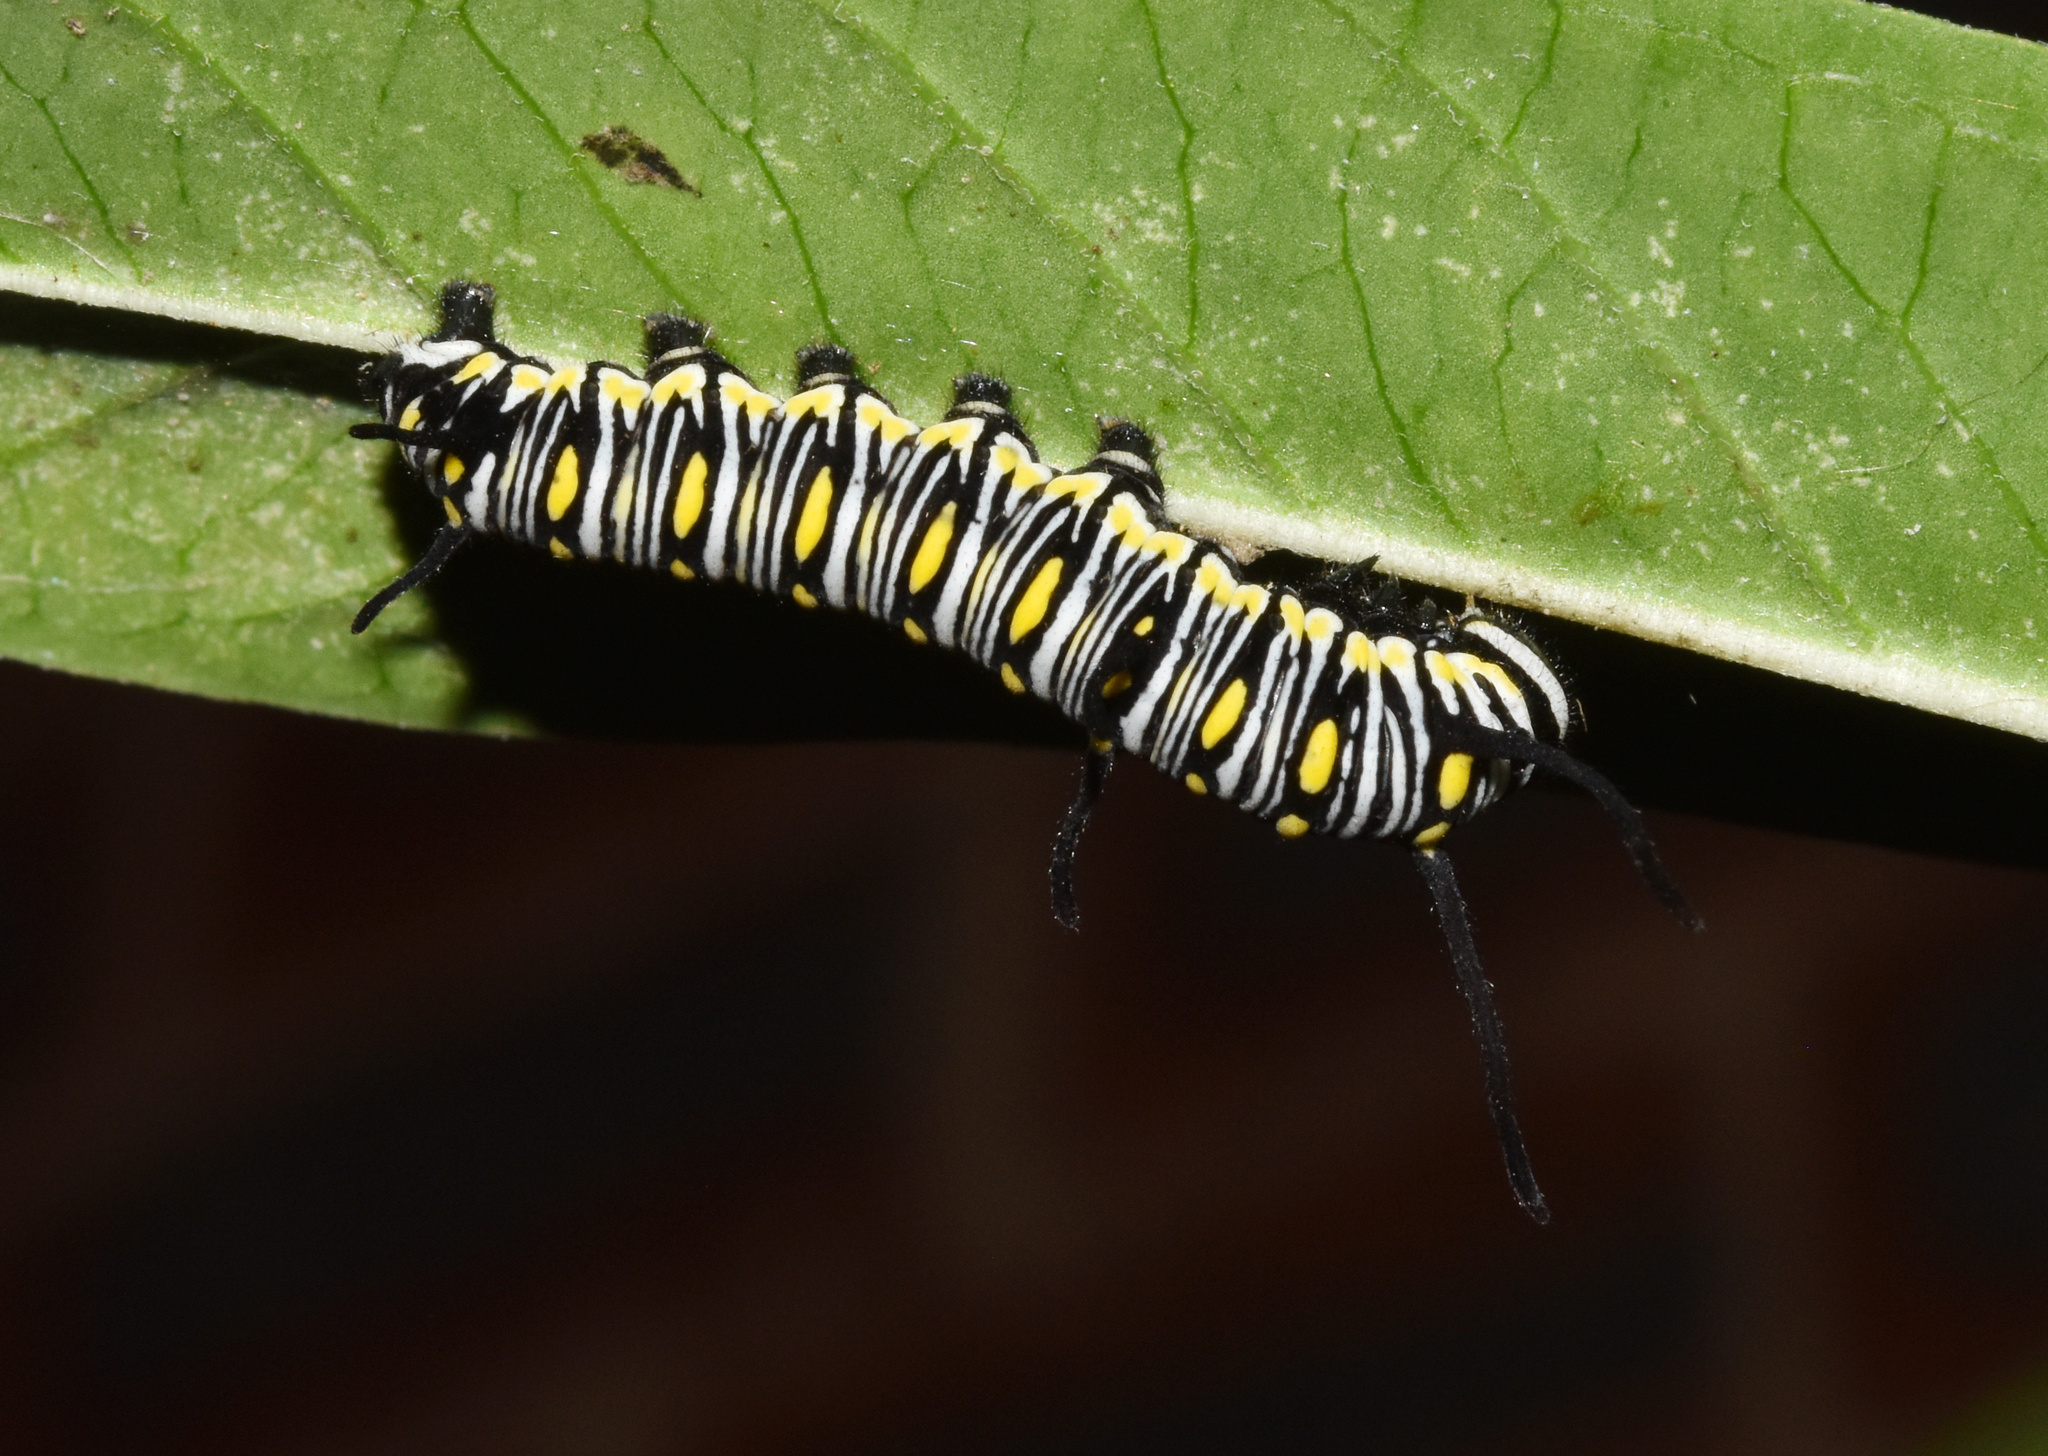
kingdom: Animalia
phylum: Arthropoda
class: Insecta
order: Lepidoptera
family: Nymphalidae
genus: Danaus
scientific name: Danaus chrysippus
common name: Plain tiger
